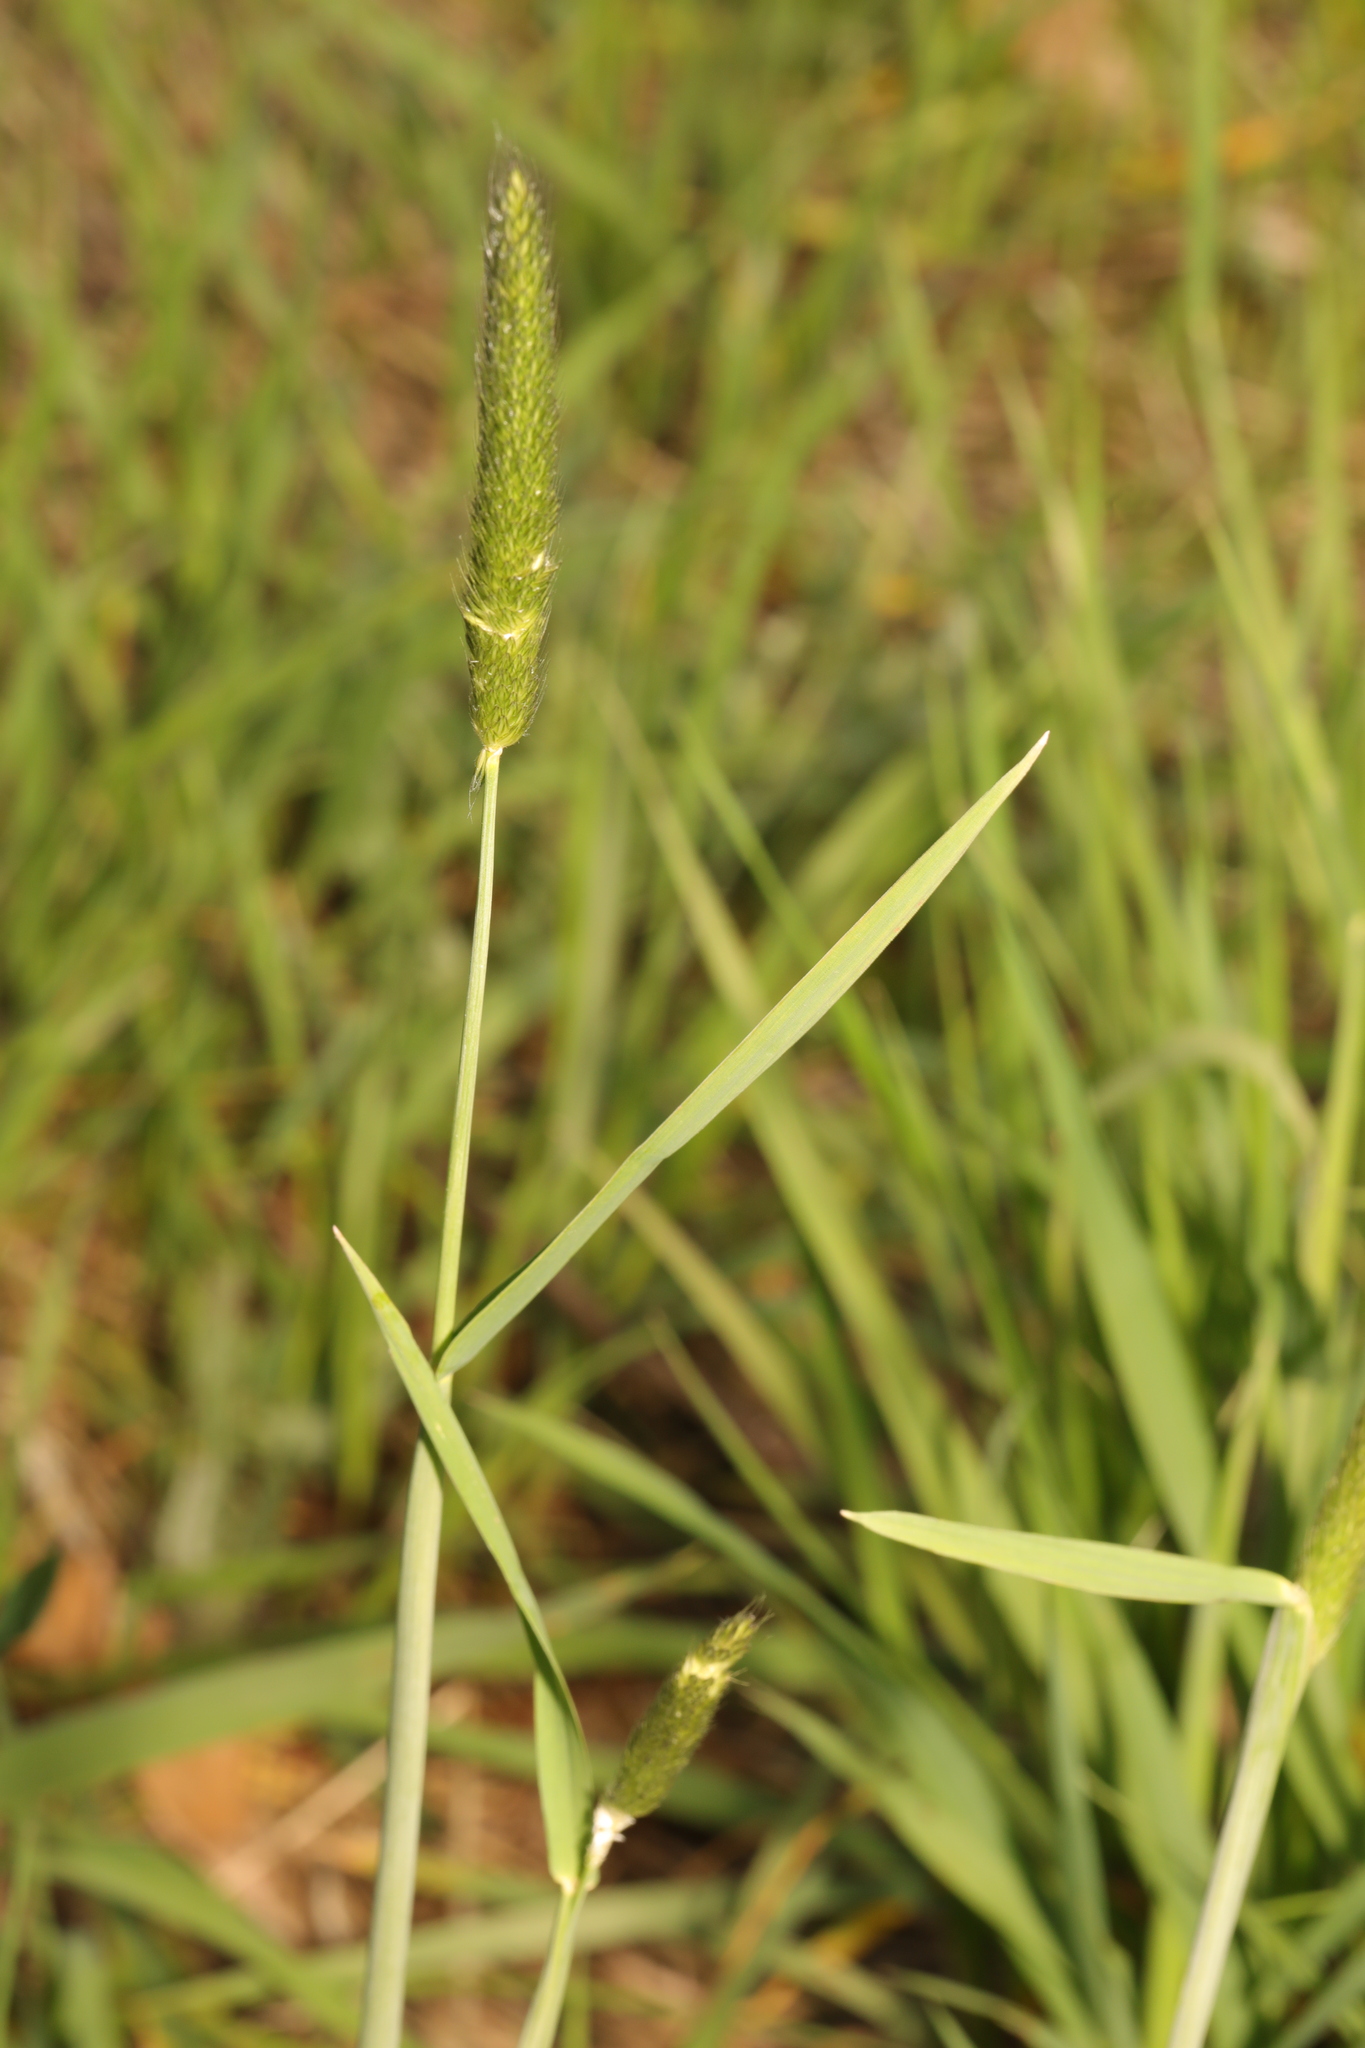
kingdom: Plantae
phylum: Tracheophyta
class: Liliopsida
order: Poales
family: Poaceae
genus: Alopecurus
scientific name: Alopecurus pratensis
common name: Meadow foxtail
